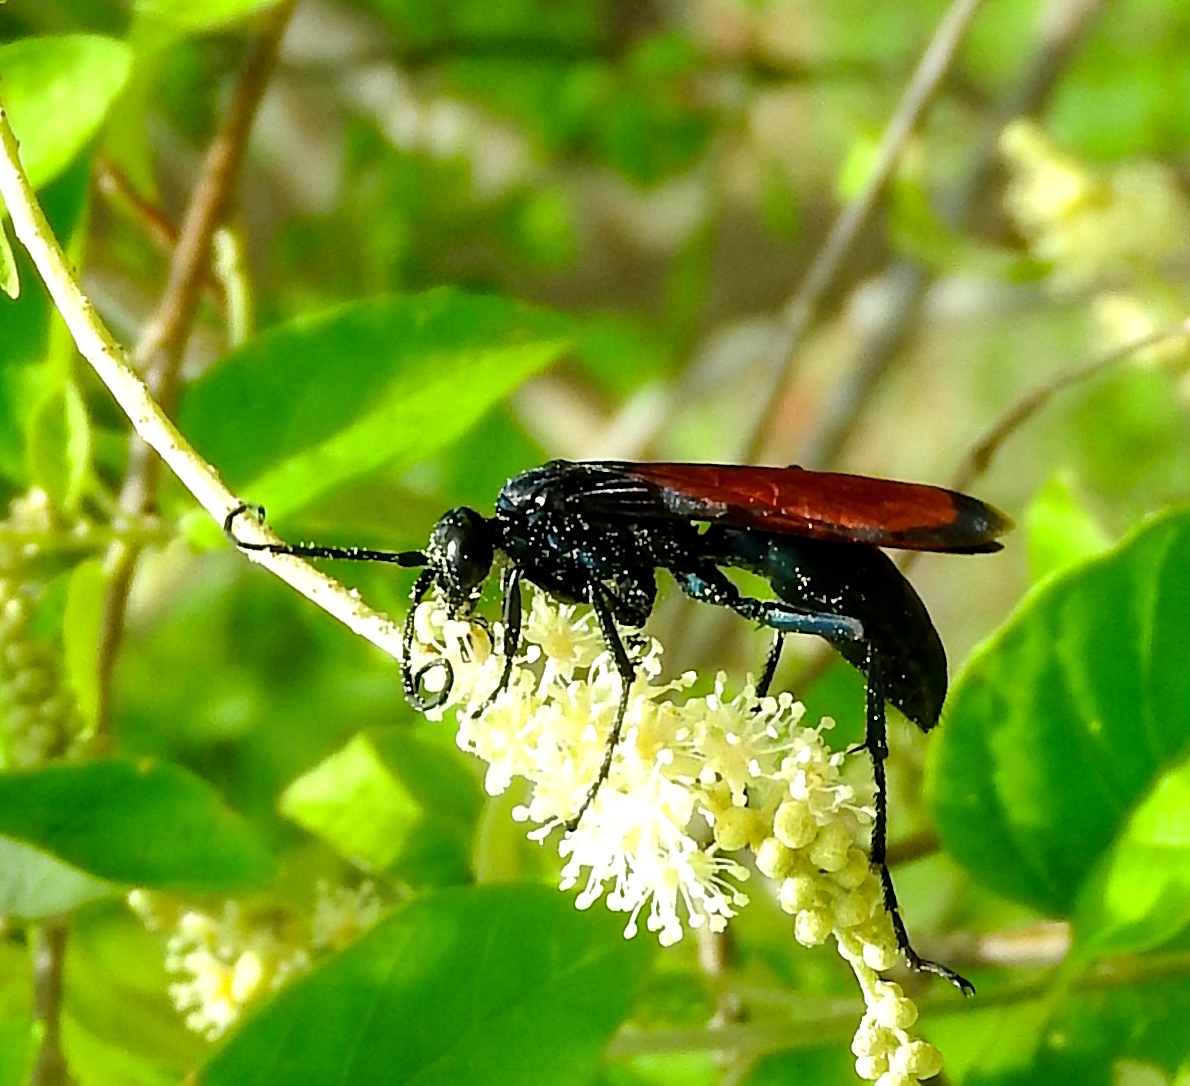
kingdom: Animalia
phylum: Arthropoda
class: Insecta
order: Hymenoptera
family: Pompilidae
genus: Pepsis
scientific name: Pepsis
